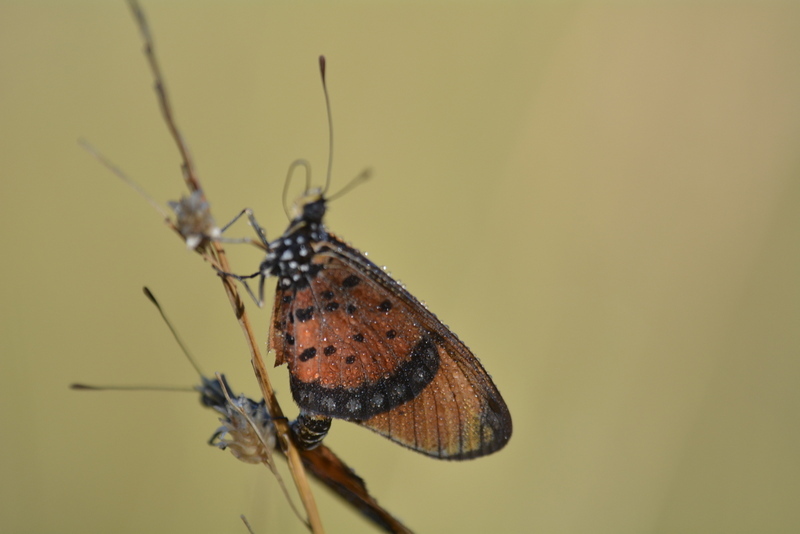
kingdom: Animalia
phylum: Arthropoda
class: Insecta
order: Lepidoptera
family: Nymphalidae
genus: Stephenia
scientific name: Stephenia
